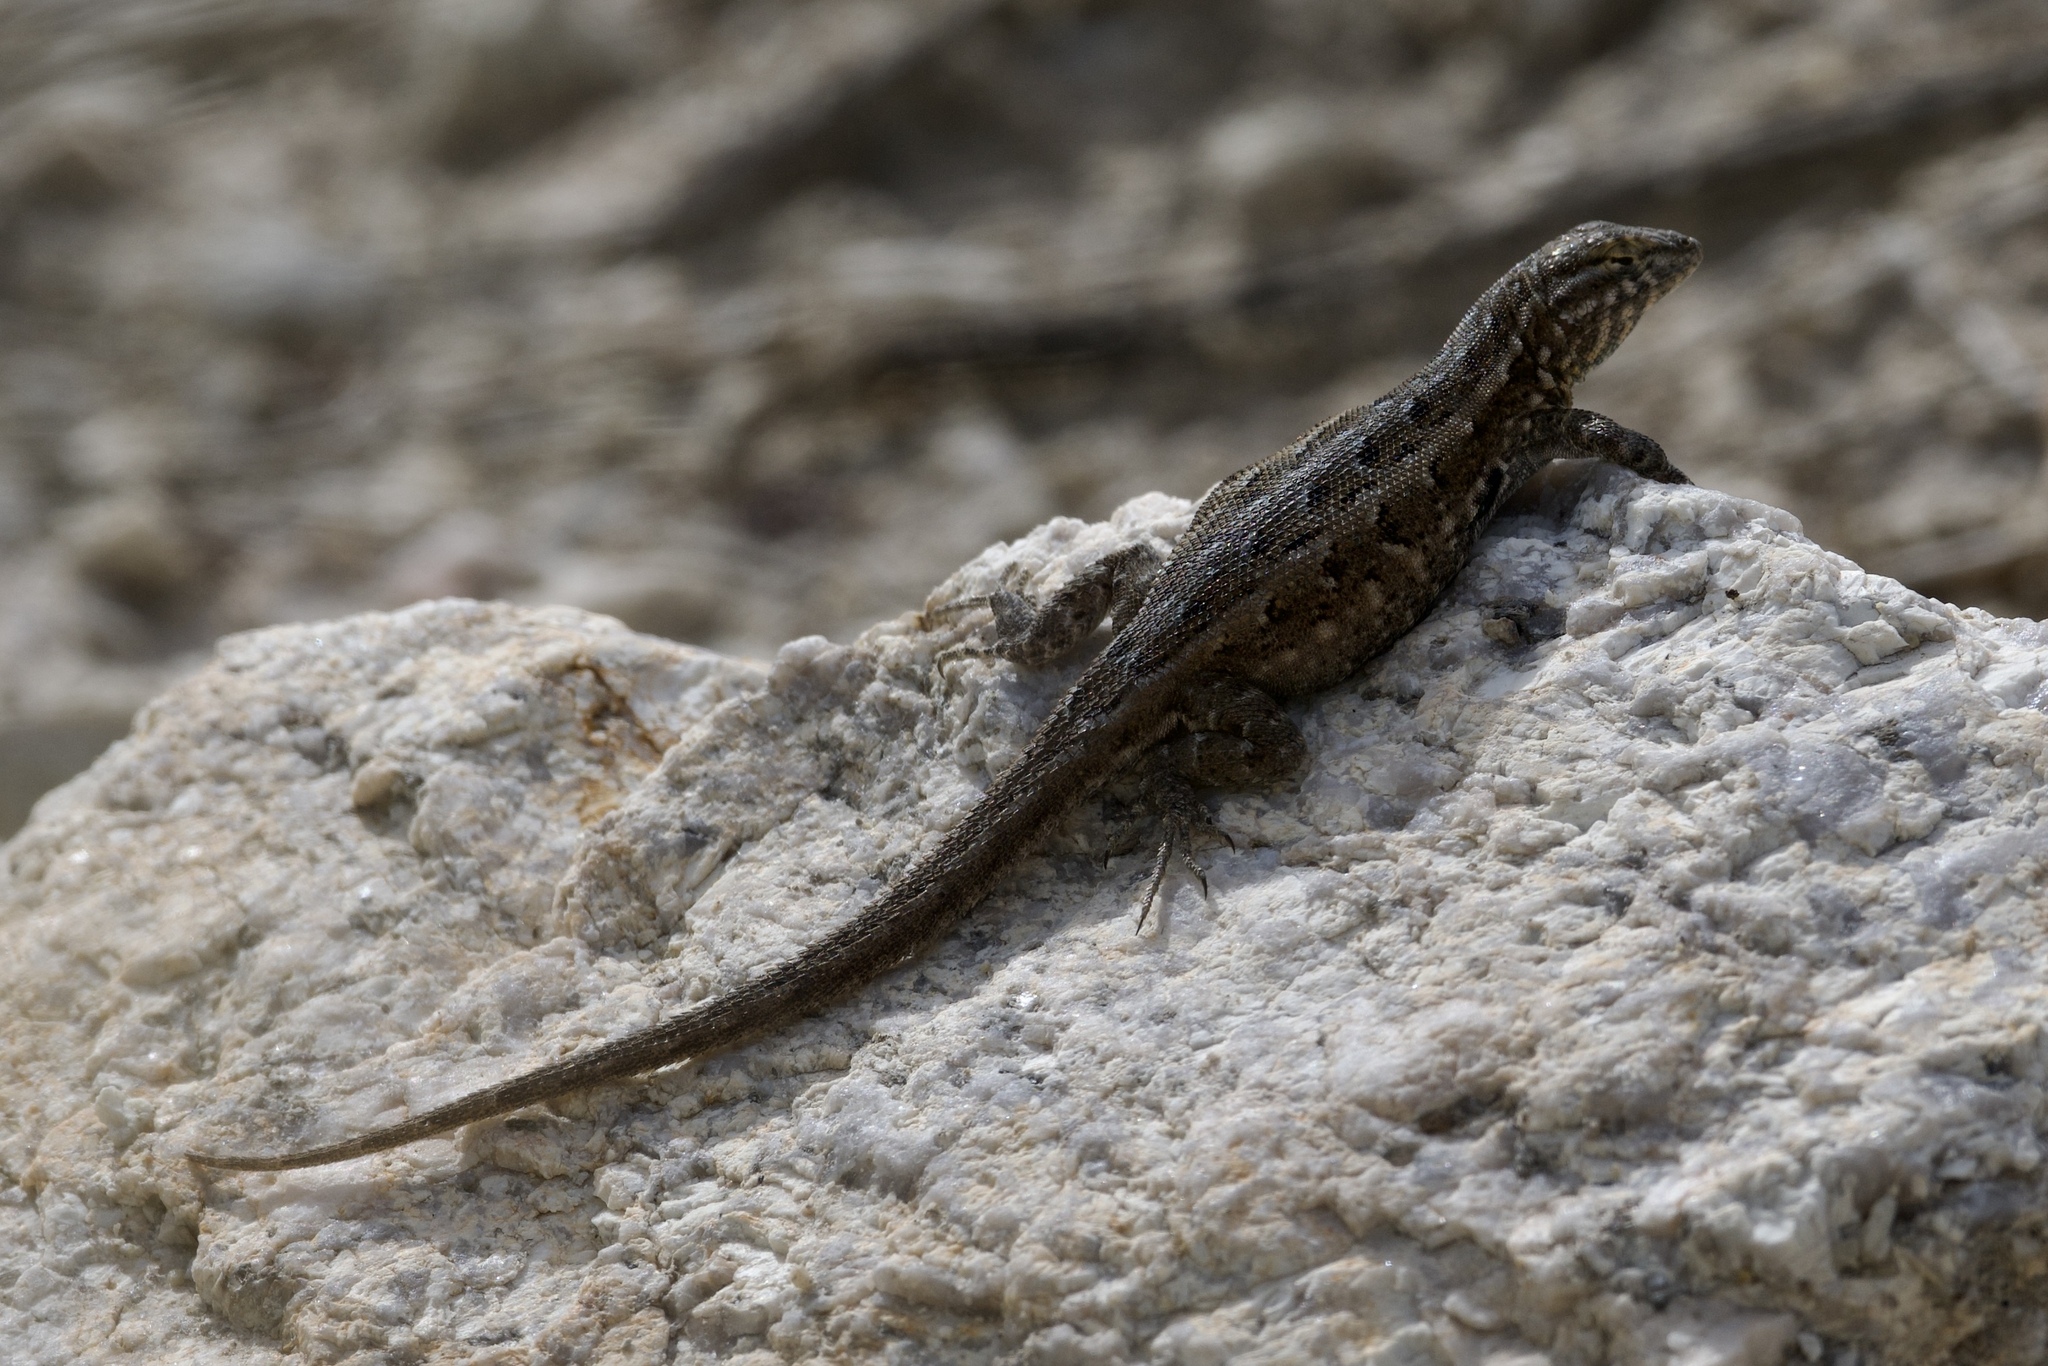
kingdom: Animalia
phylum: Chordata
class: Squamata
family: Phrynosomatidae
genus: Uta
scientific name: Uta stansburiana
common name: Side-blotched lizard
